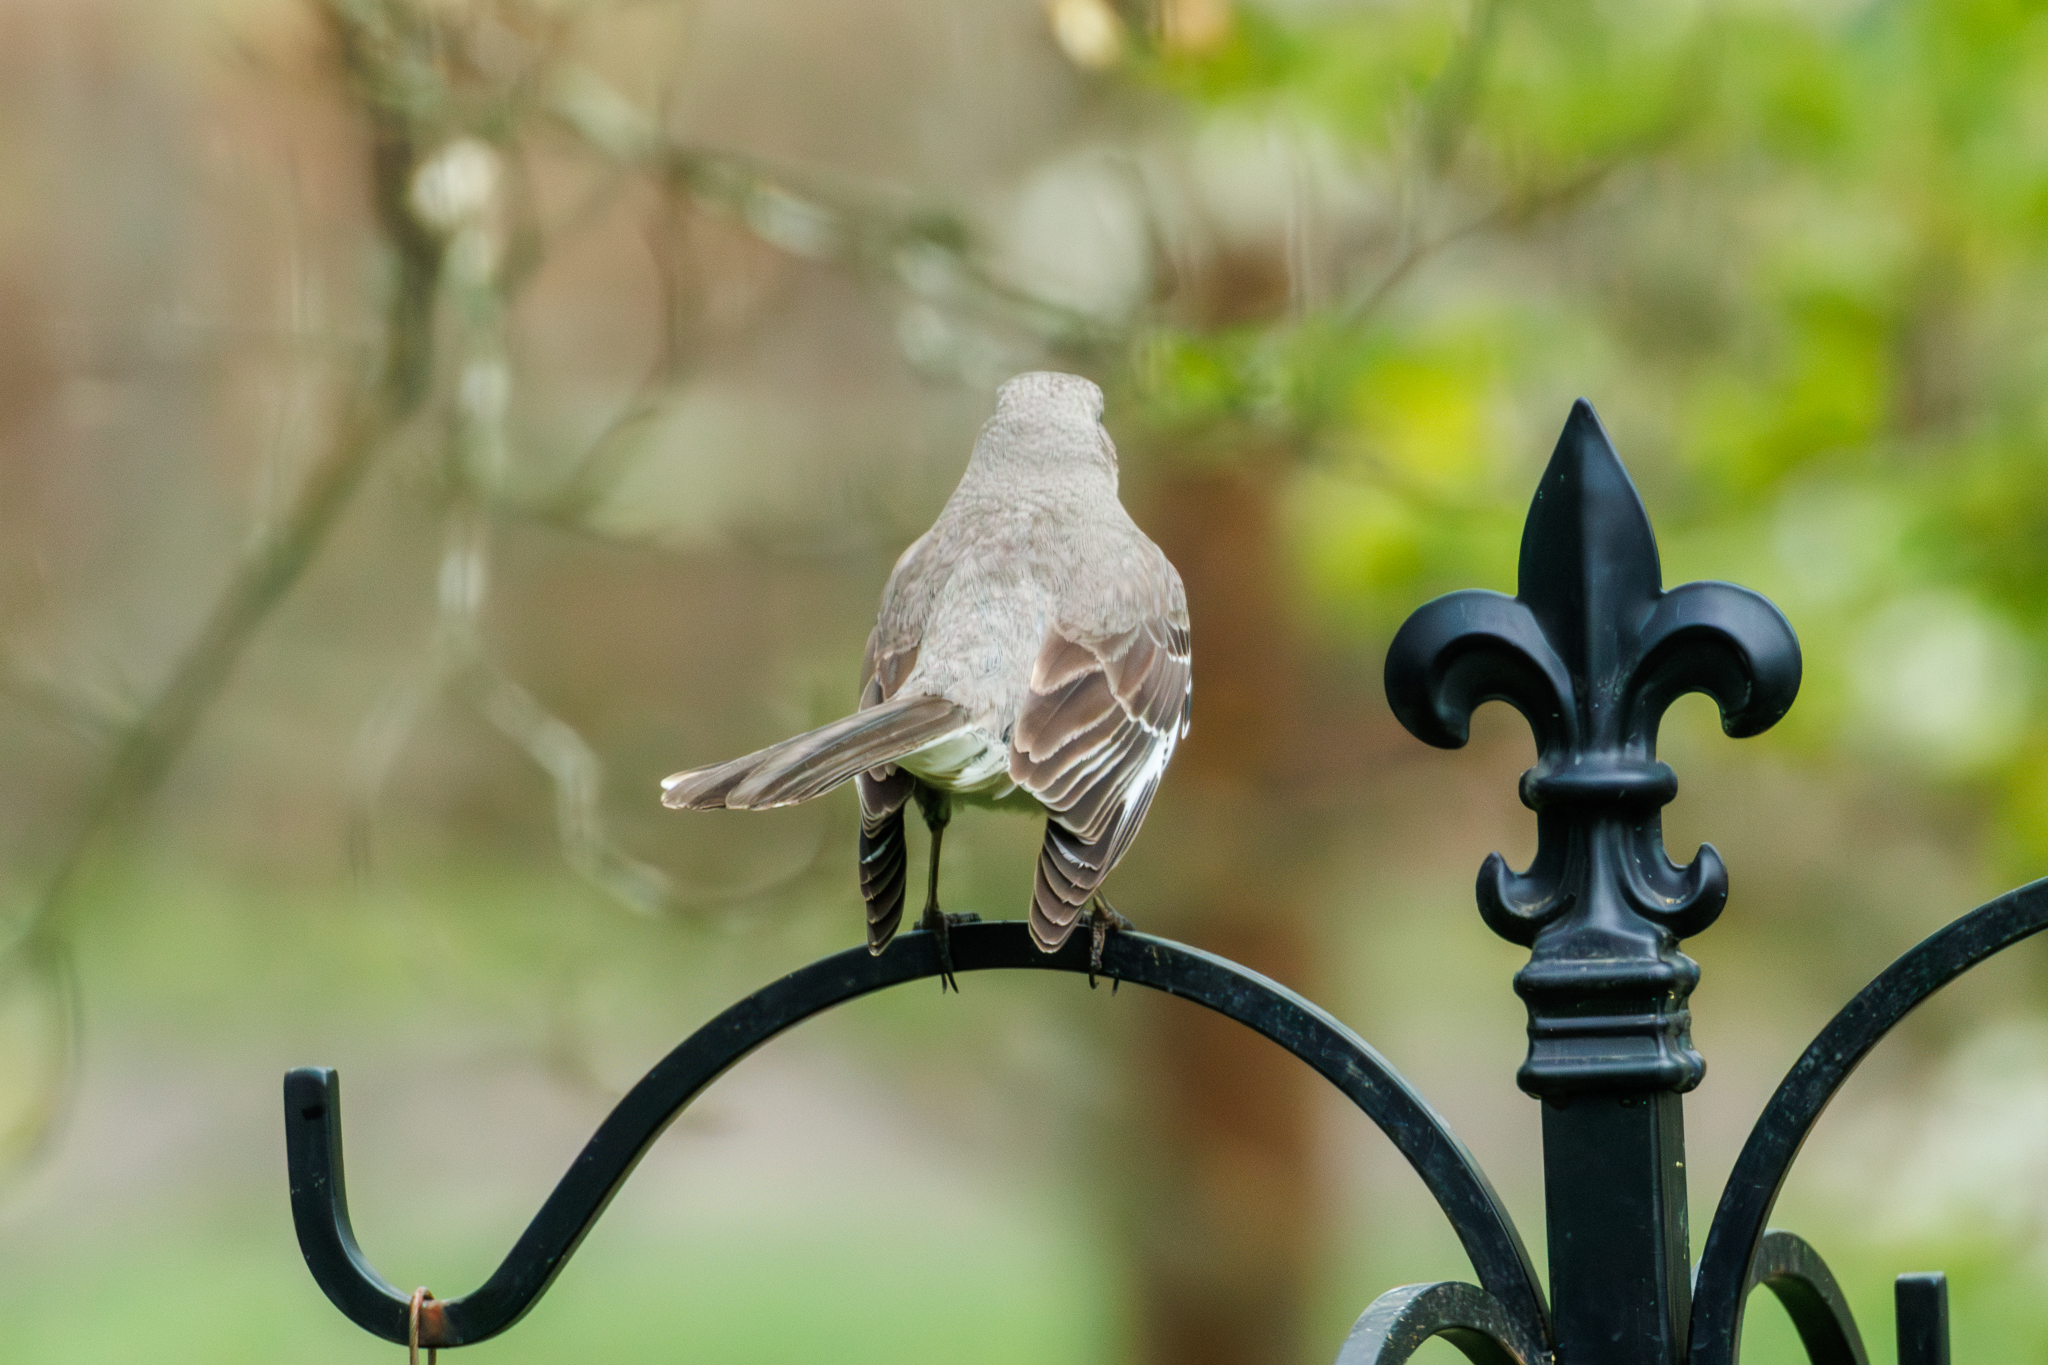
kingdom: Animalia
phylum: Chordata
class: Aves
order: Passeriformes
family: Mimidae
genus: Mimus
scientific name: Mimus polyglottos
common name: Northern mockingbird
